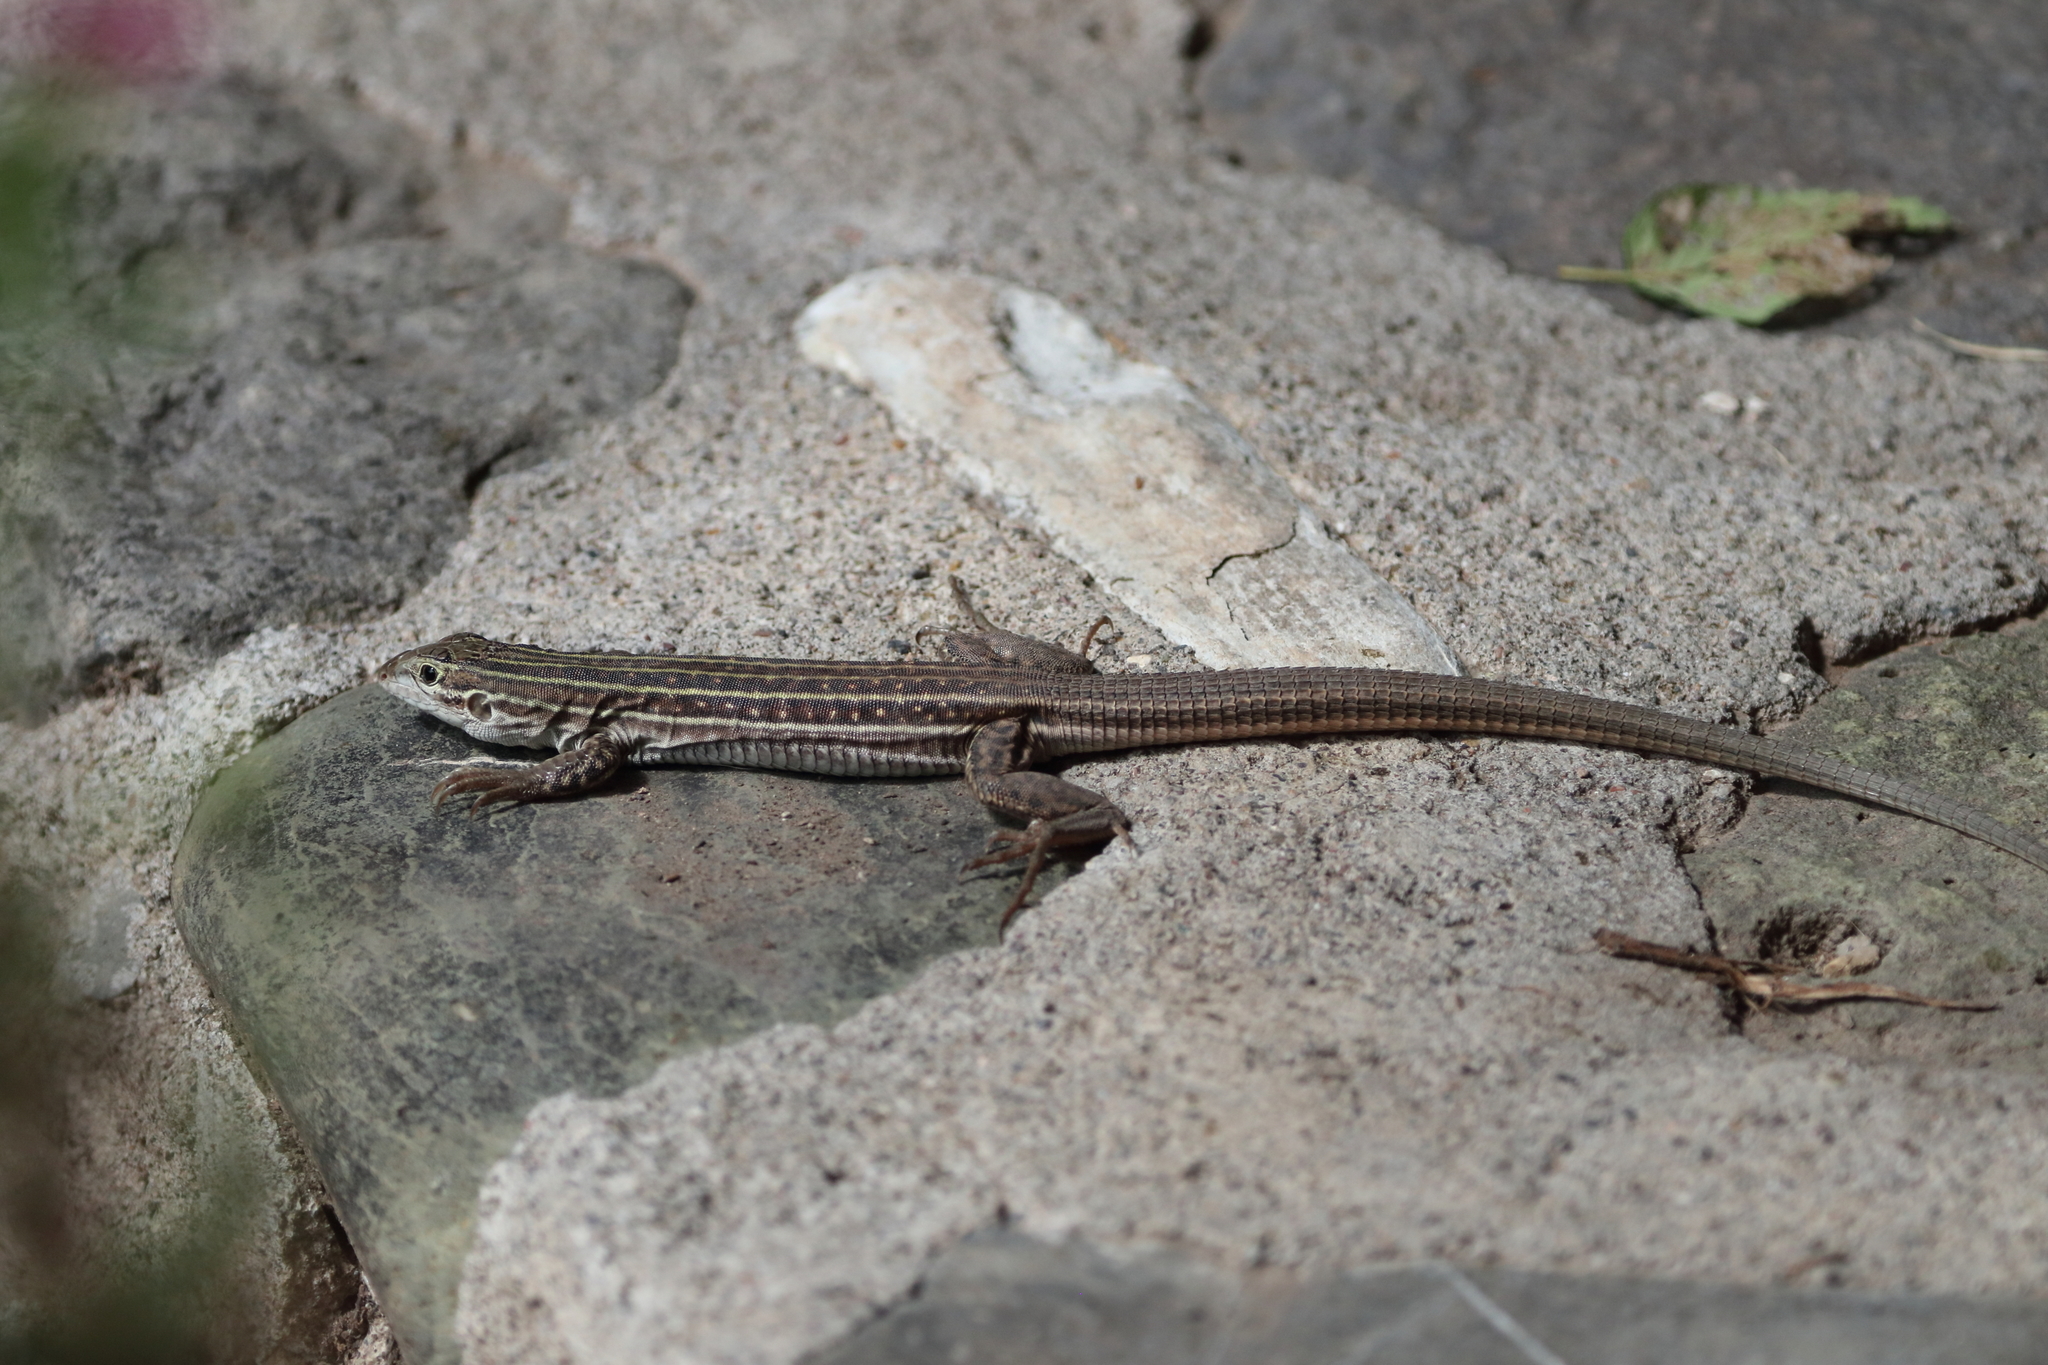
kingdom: Animalia
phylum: Chordata
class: Squamata
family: Teiidae
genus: Aspidoscelis
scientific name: Aspidoscelis sonorae
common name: Sonoran spotted whiptail
